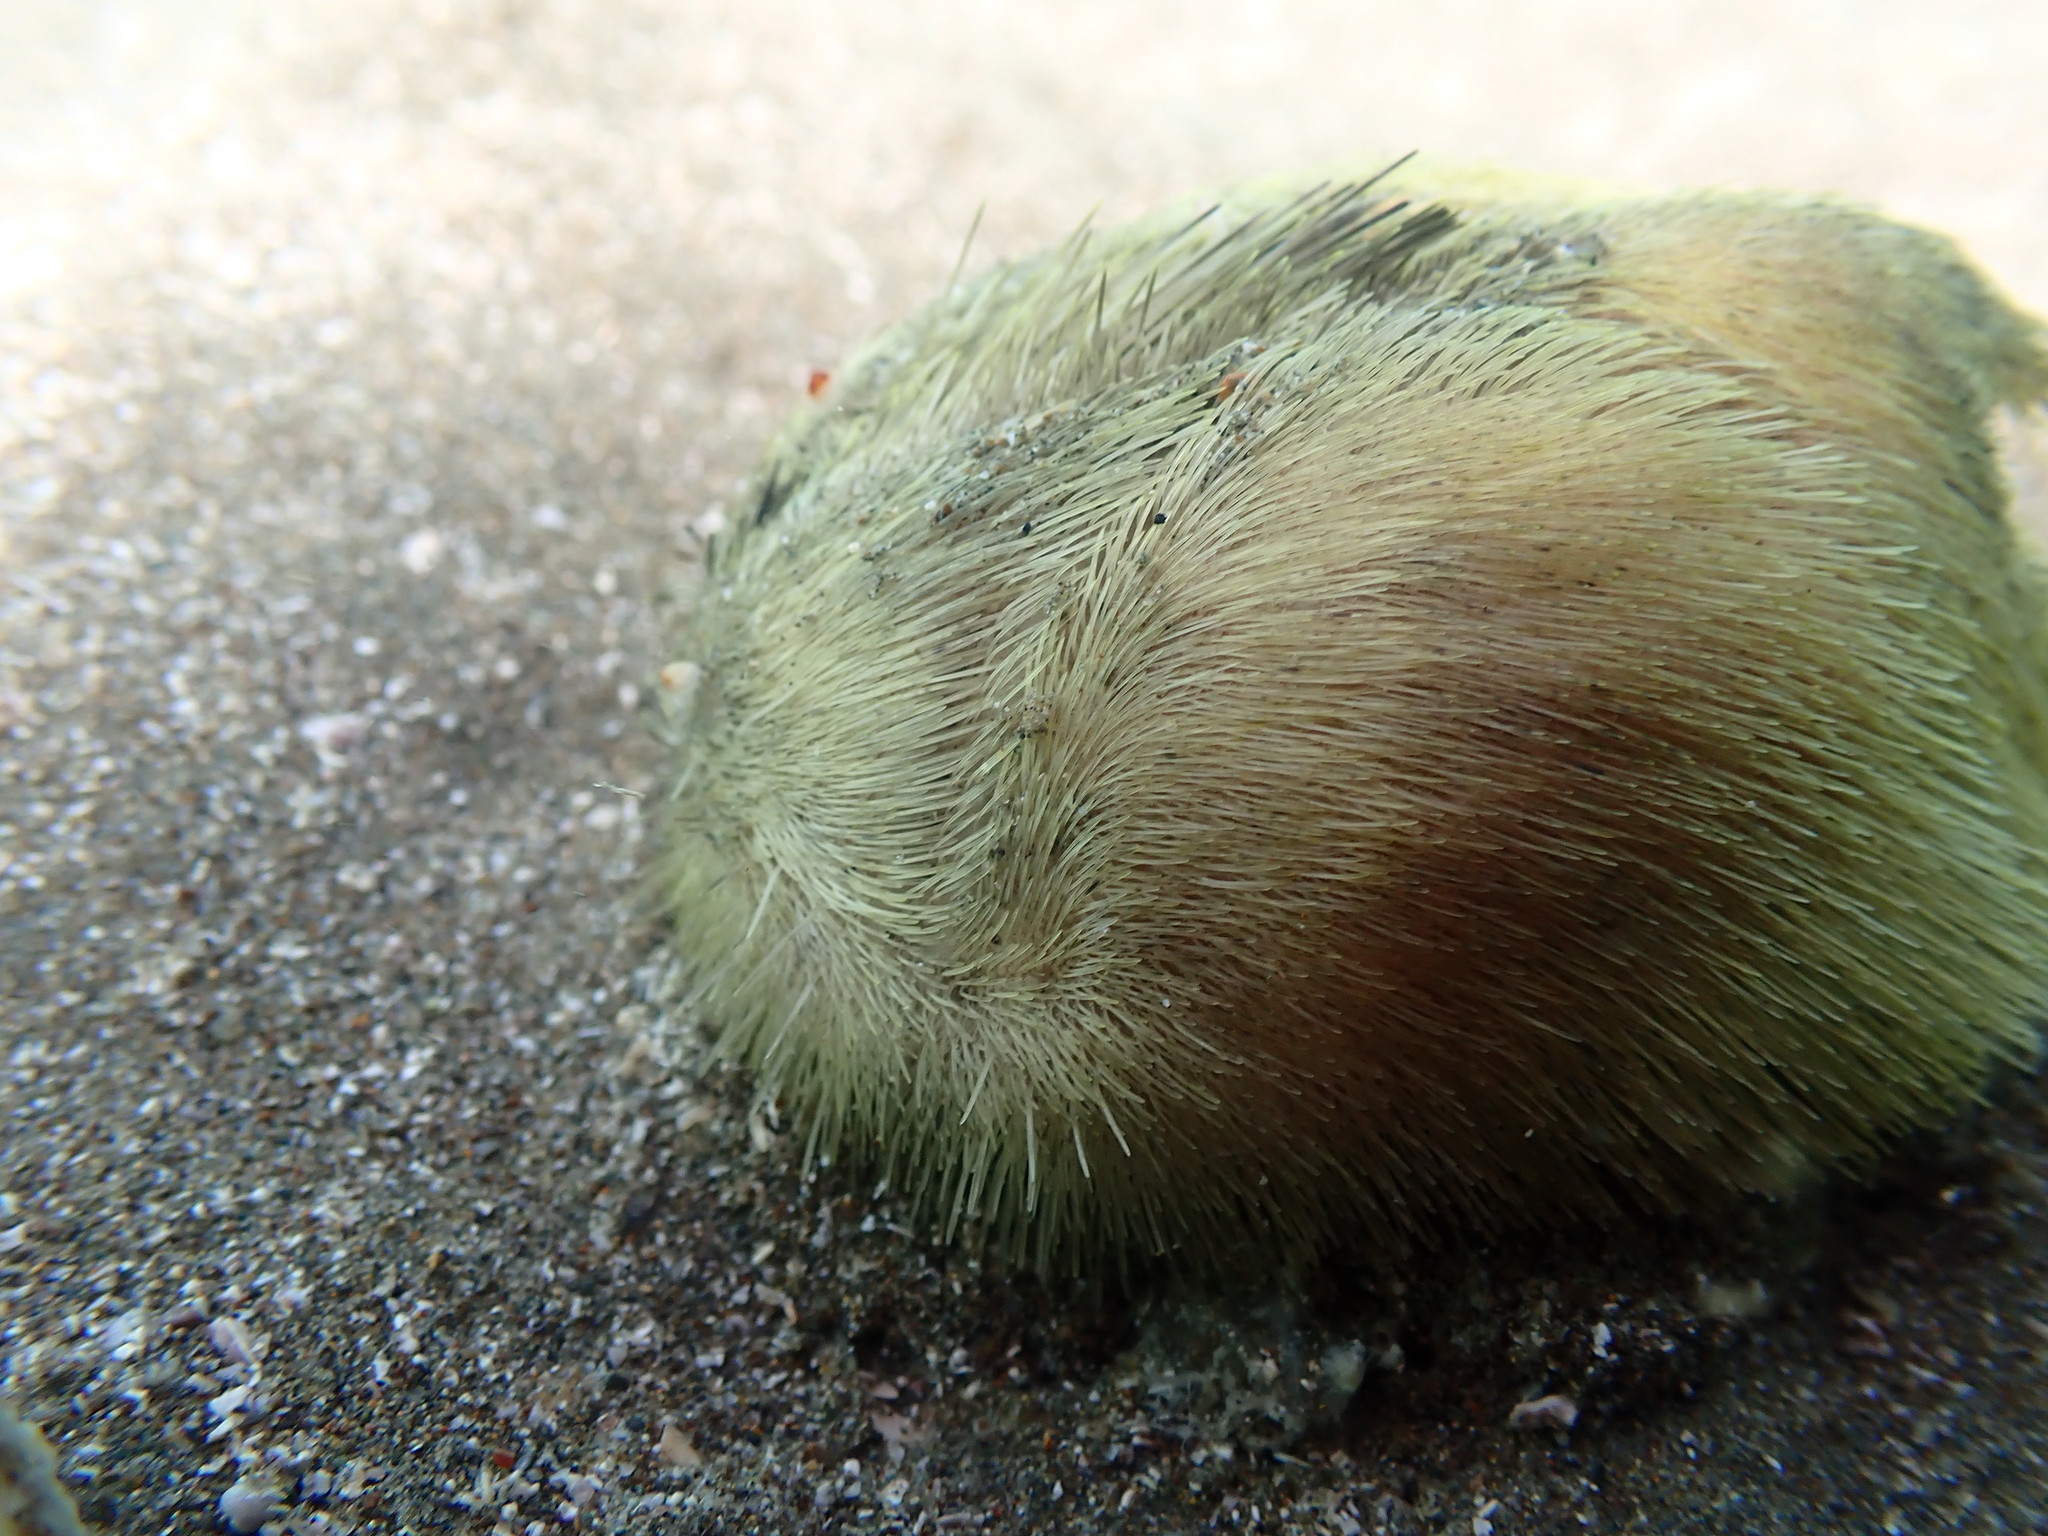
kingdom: Animalia
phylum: Echinodermata
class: Echinoidea
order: Spatangoida
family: Loveniidae
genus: Echinocardium
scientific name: Echinocardium cordatum
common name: Heart-urchin
